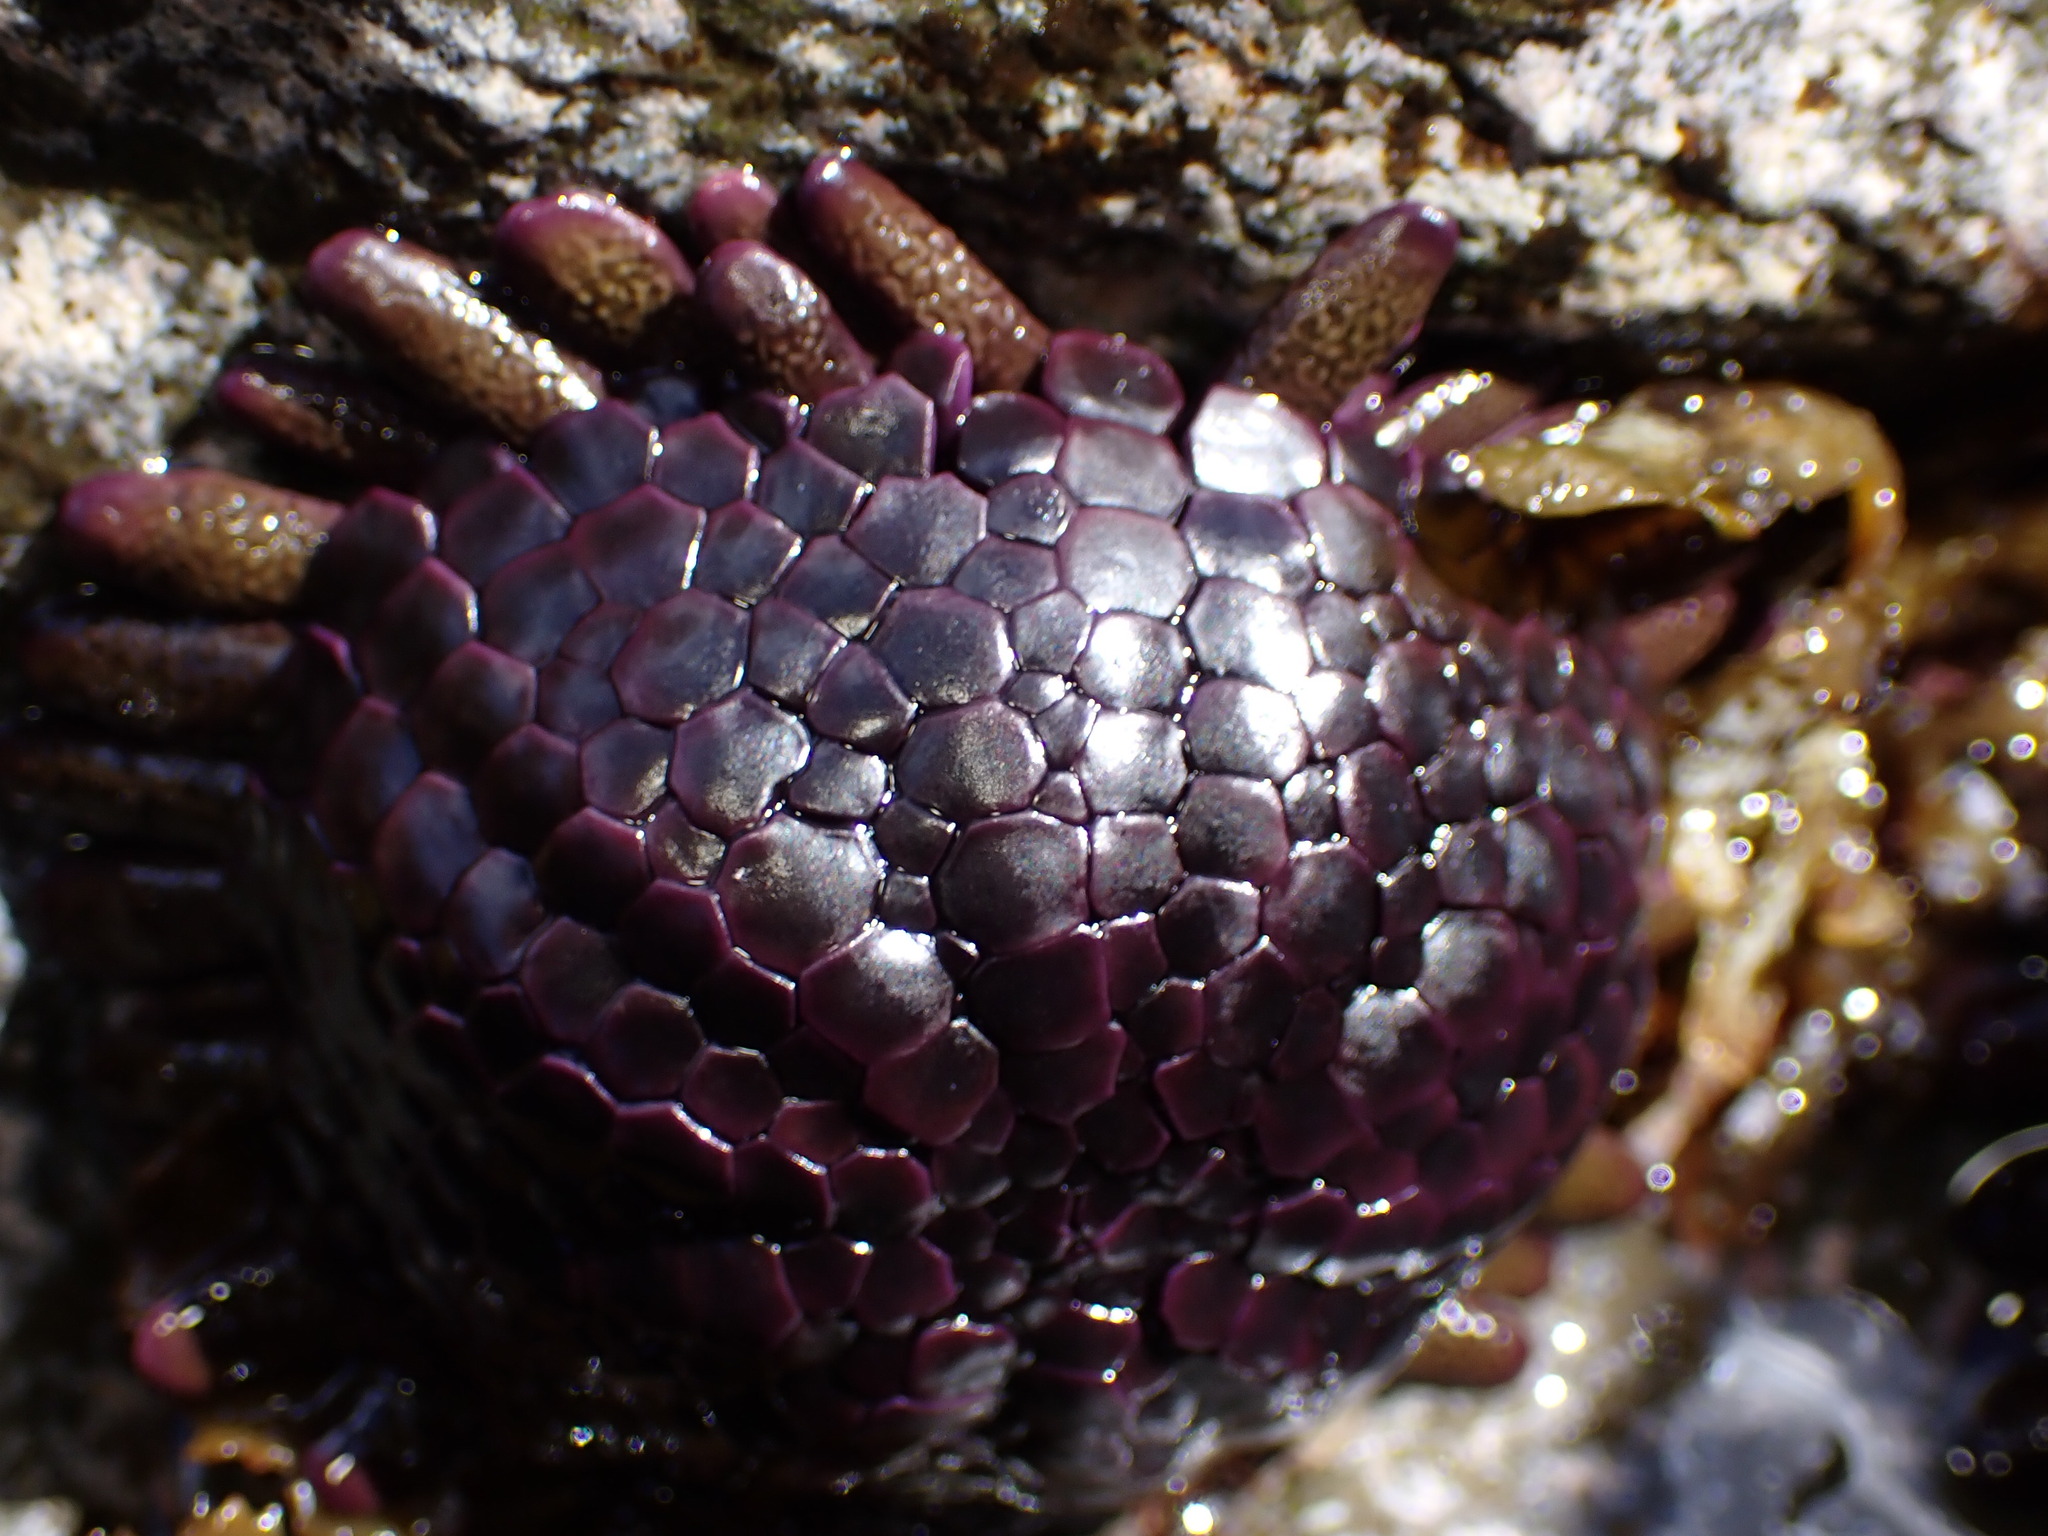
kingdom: Animalia
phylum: Echinodermata
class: Echinoidea
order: Camarodonta
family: Echinometridae
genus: Colobocentrotus
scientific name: Colobocentrotus atratus
